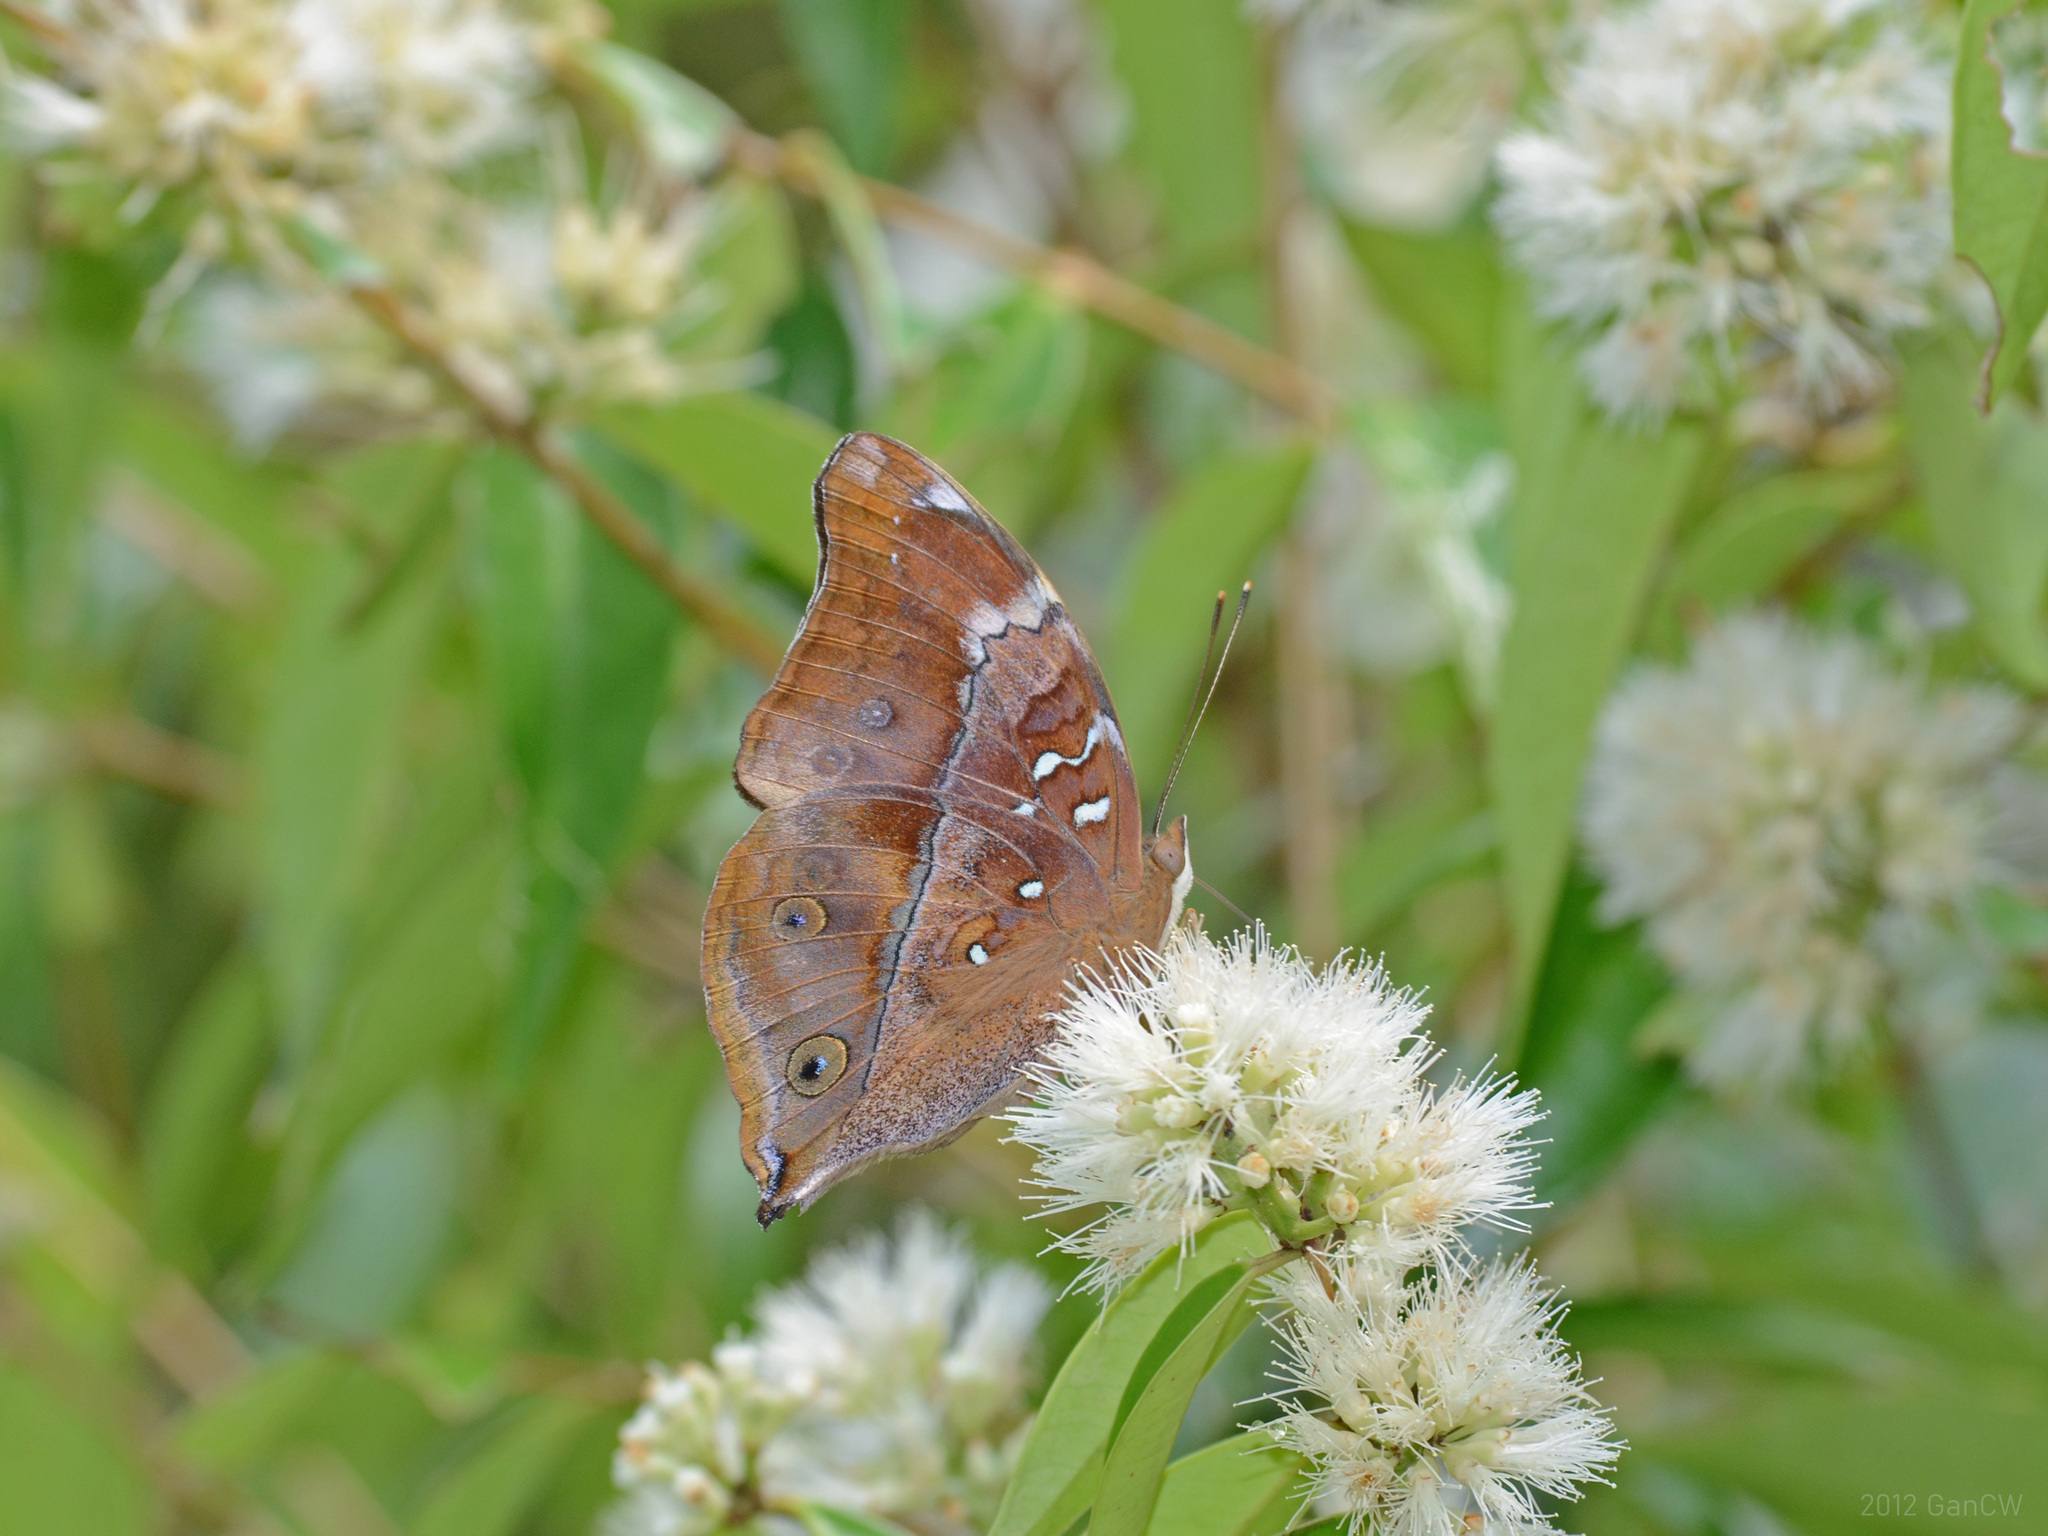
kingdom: Animalia
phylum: Arthropoda
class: Insecta
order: Lepidoptera
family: Nymphalidae
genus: Doleschallia
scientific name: Doleschallia bisaltide
